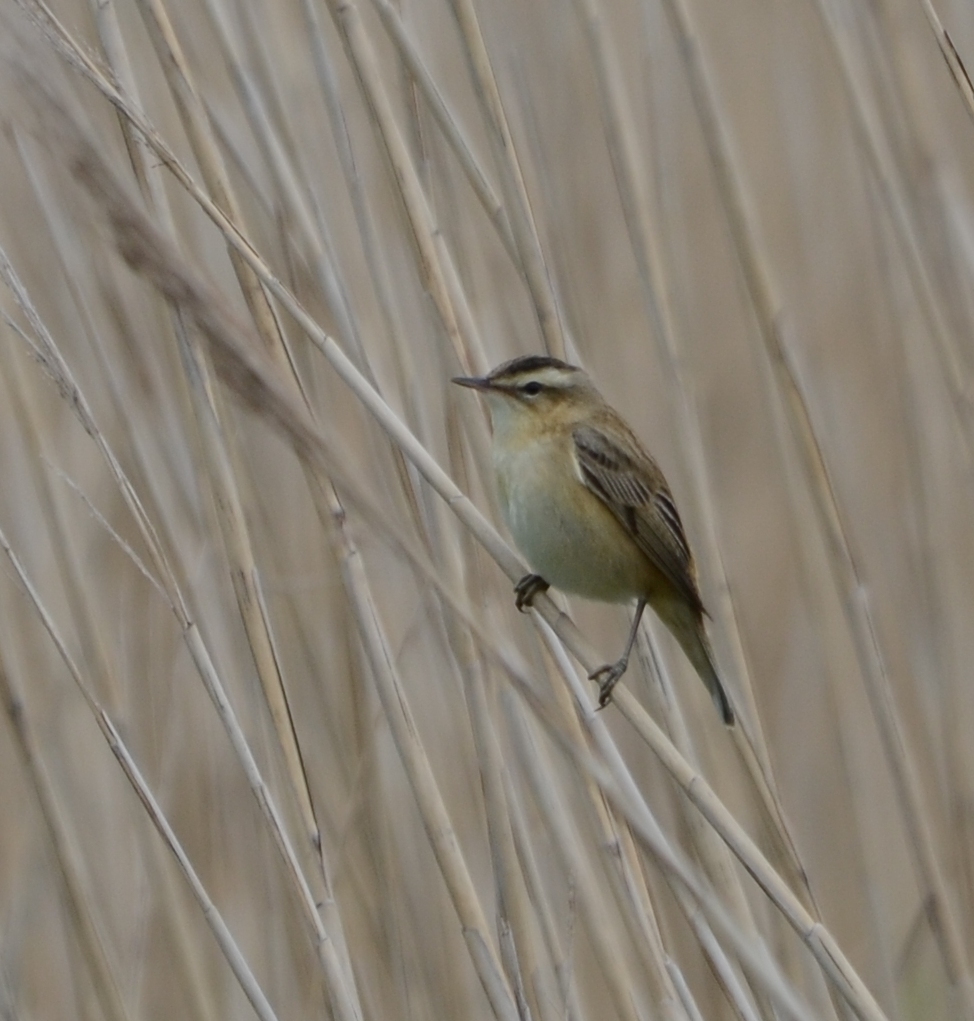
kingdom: Animalia
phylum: Chordata
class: Aves
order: Passeriformes
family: Acrocephalidae
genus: Acrocephalus
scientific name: Acrocephalus schoenobaenus
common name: Sedge warbler
